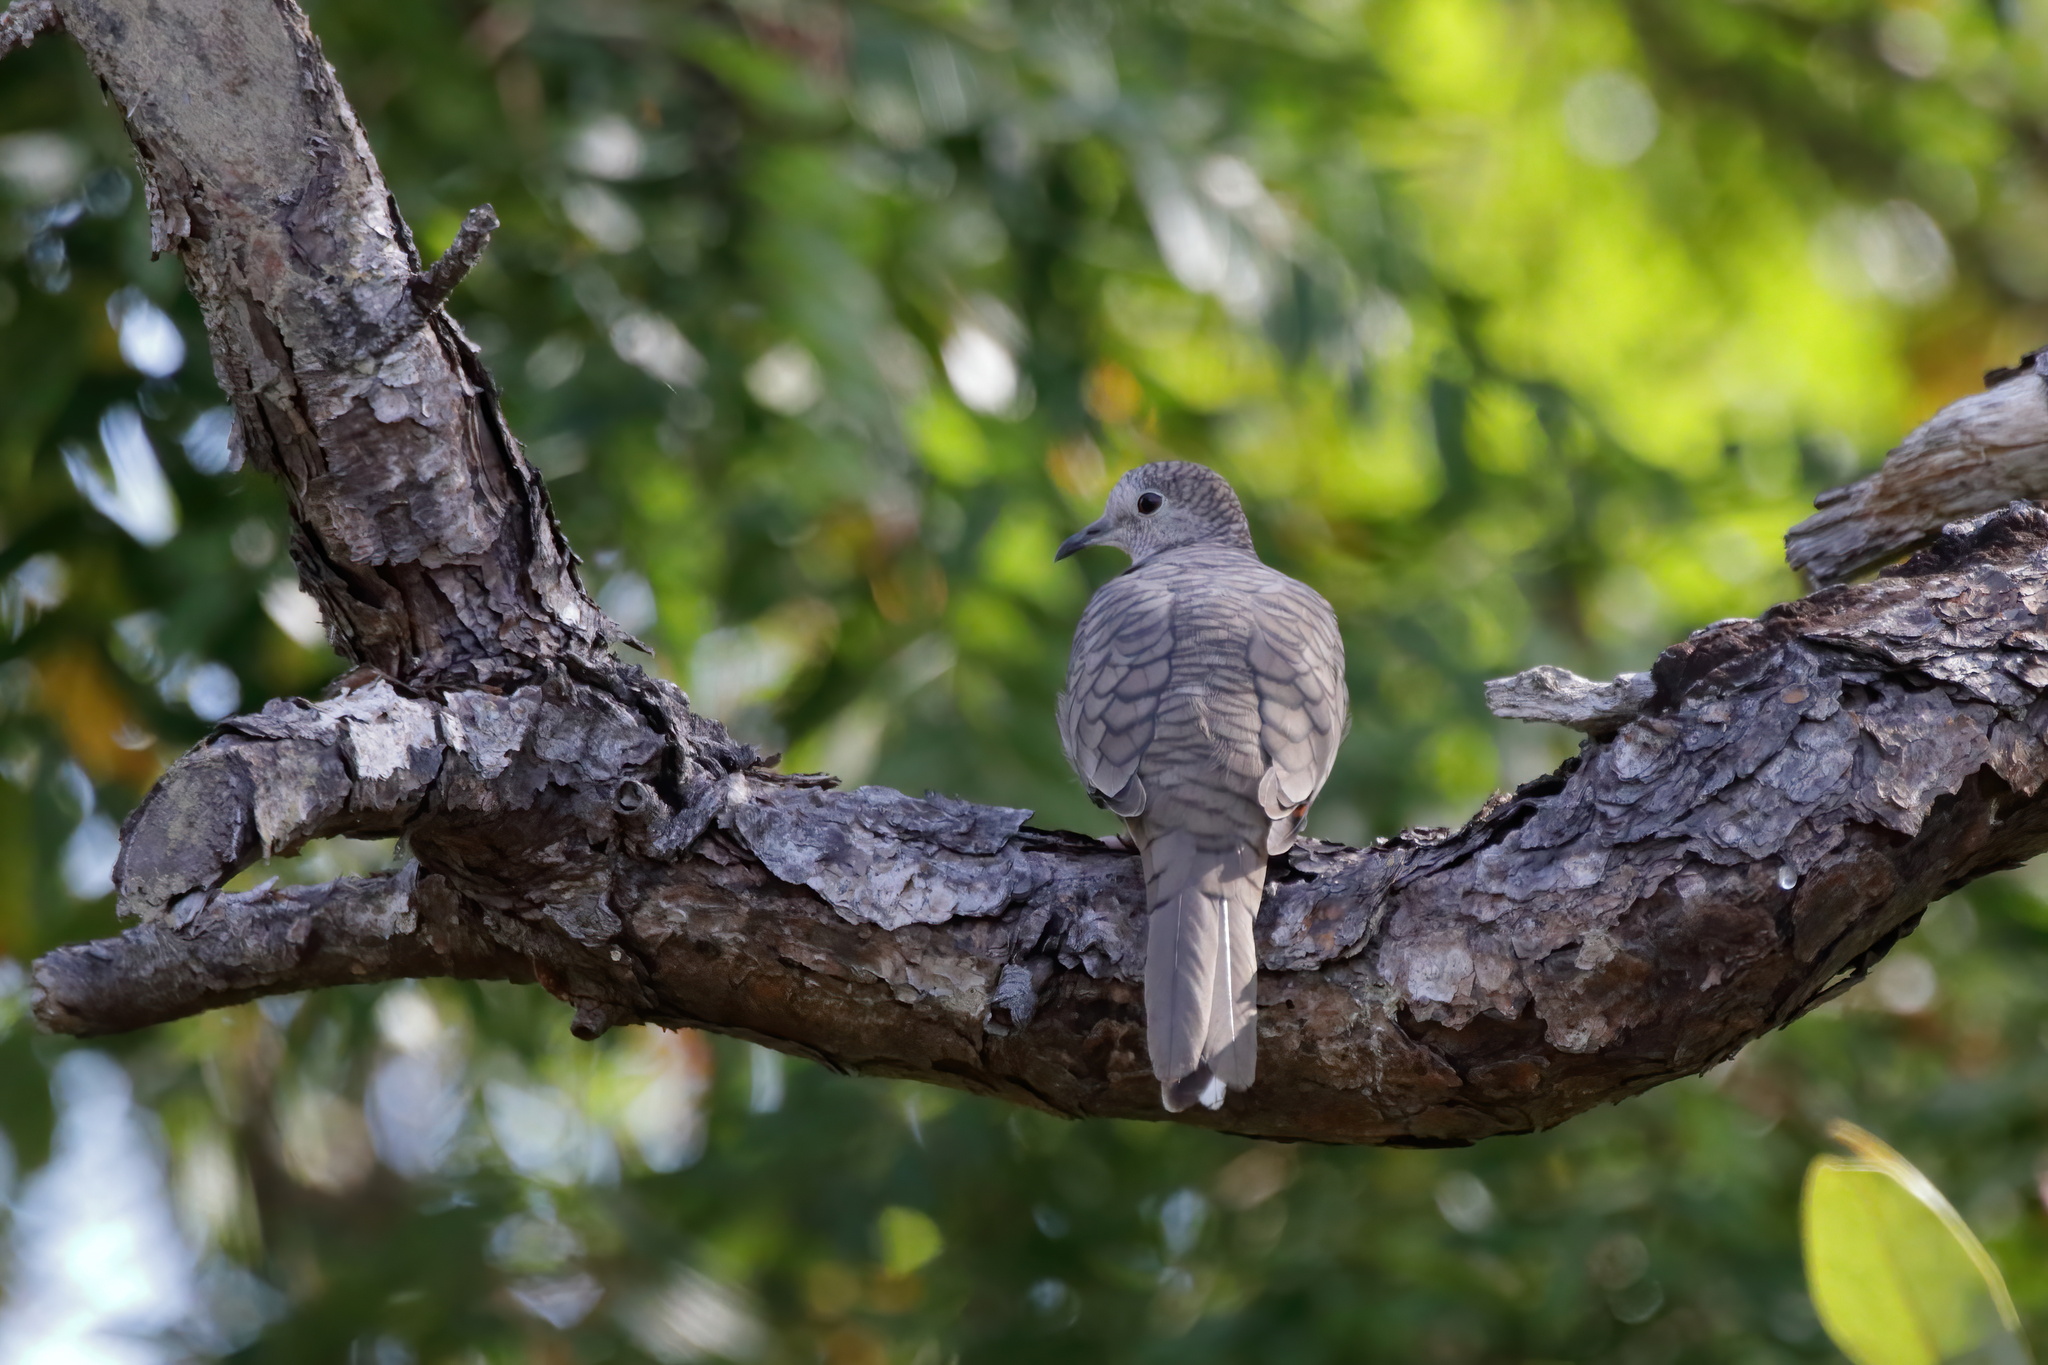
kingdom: Animalia
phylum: Chordata
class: Aves
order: Columbiformes
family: Columbidae
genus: Columbina
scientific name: Columbina inca
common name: Inca dove
